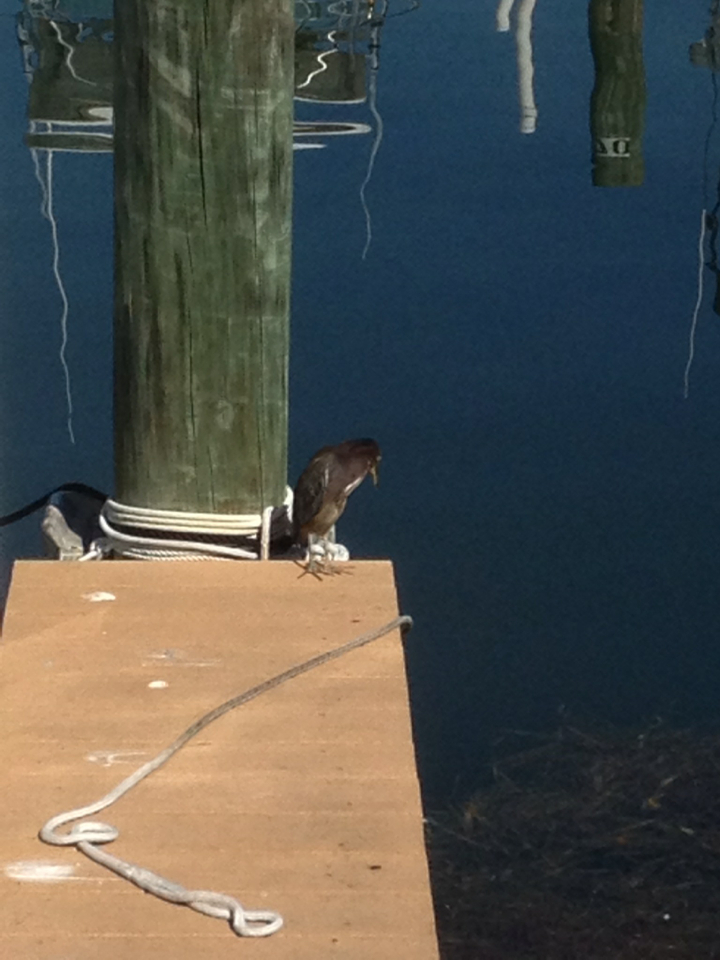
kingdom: Animalia
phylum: Chordata
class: Aves
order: Pelecaniformes
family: Ardeidae
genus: Butorides
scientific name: Butorides virescens
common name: Green heron
